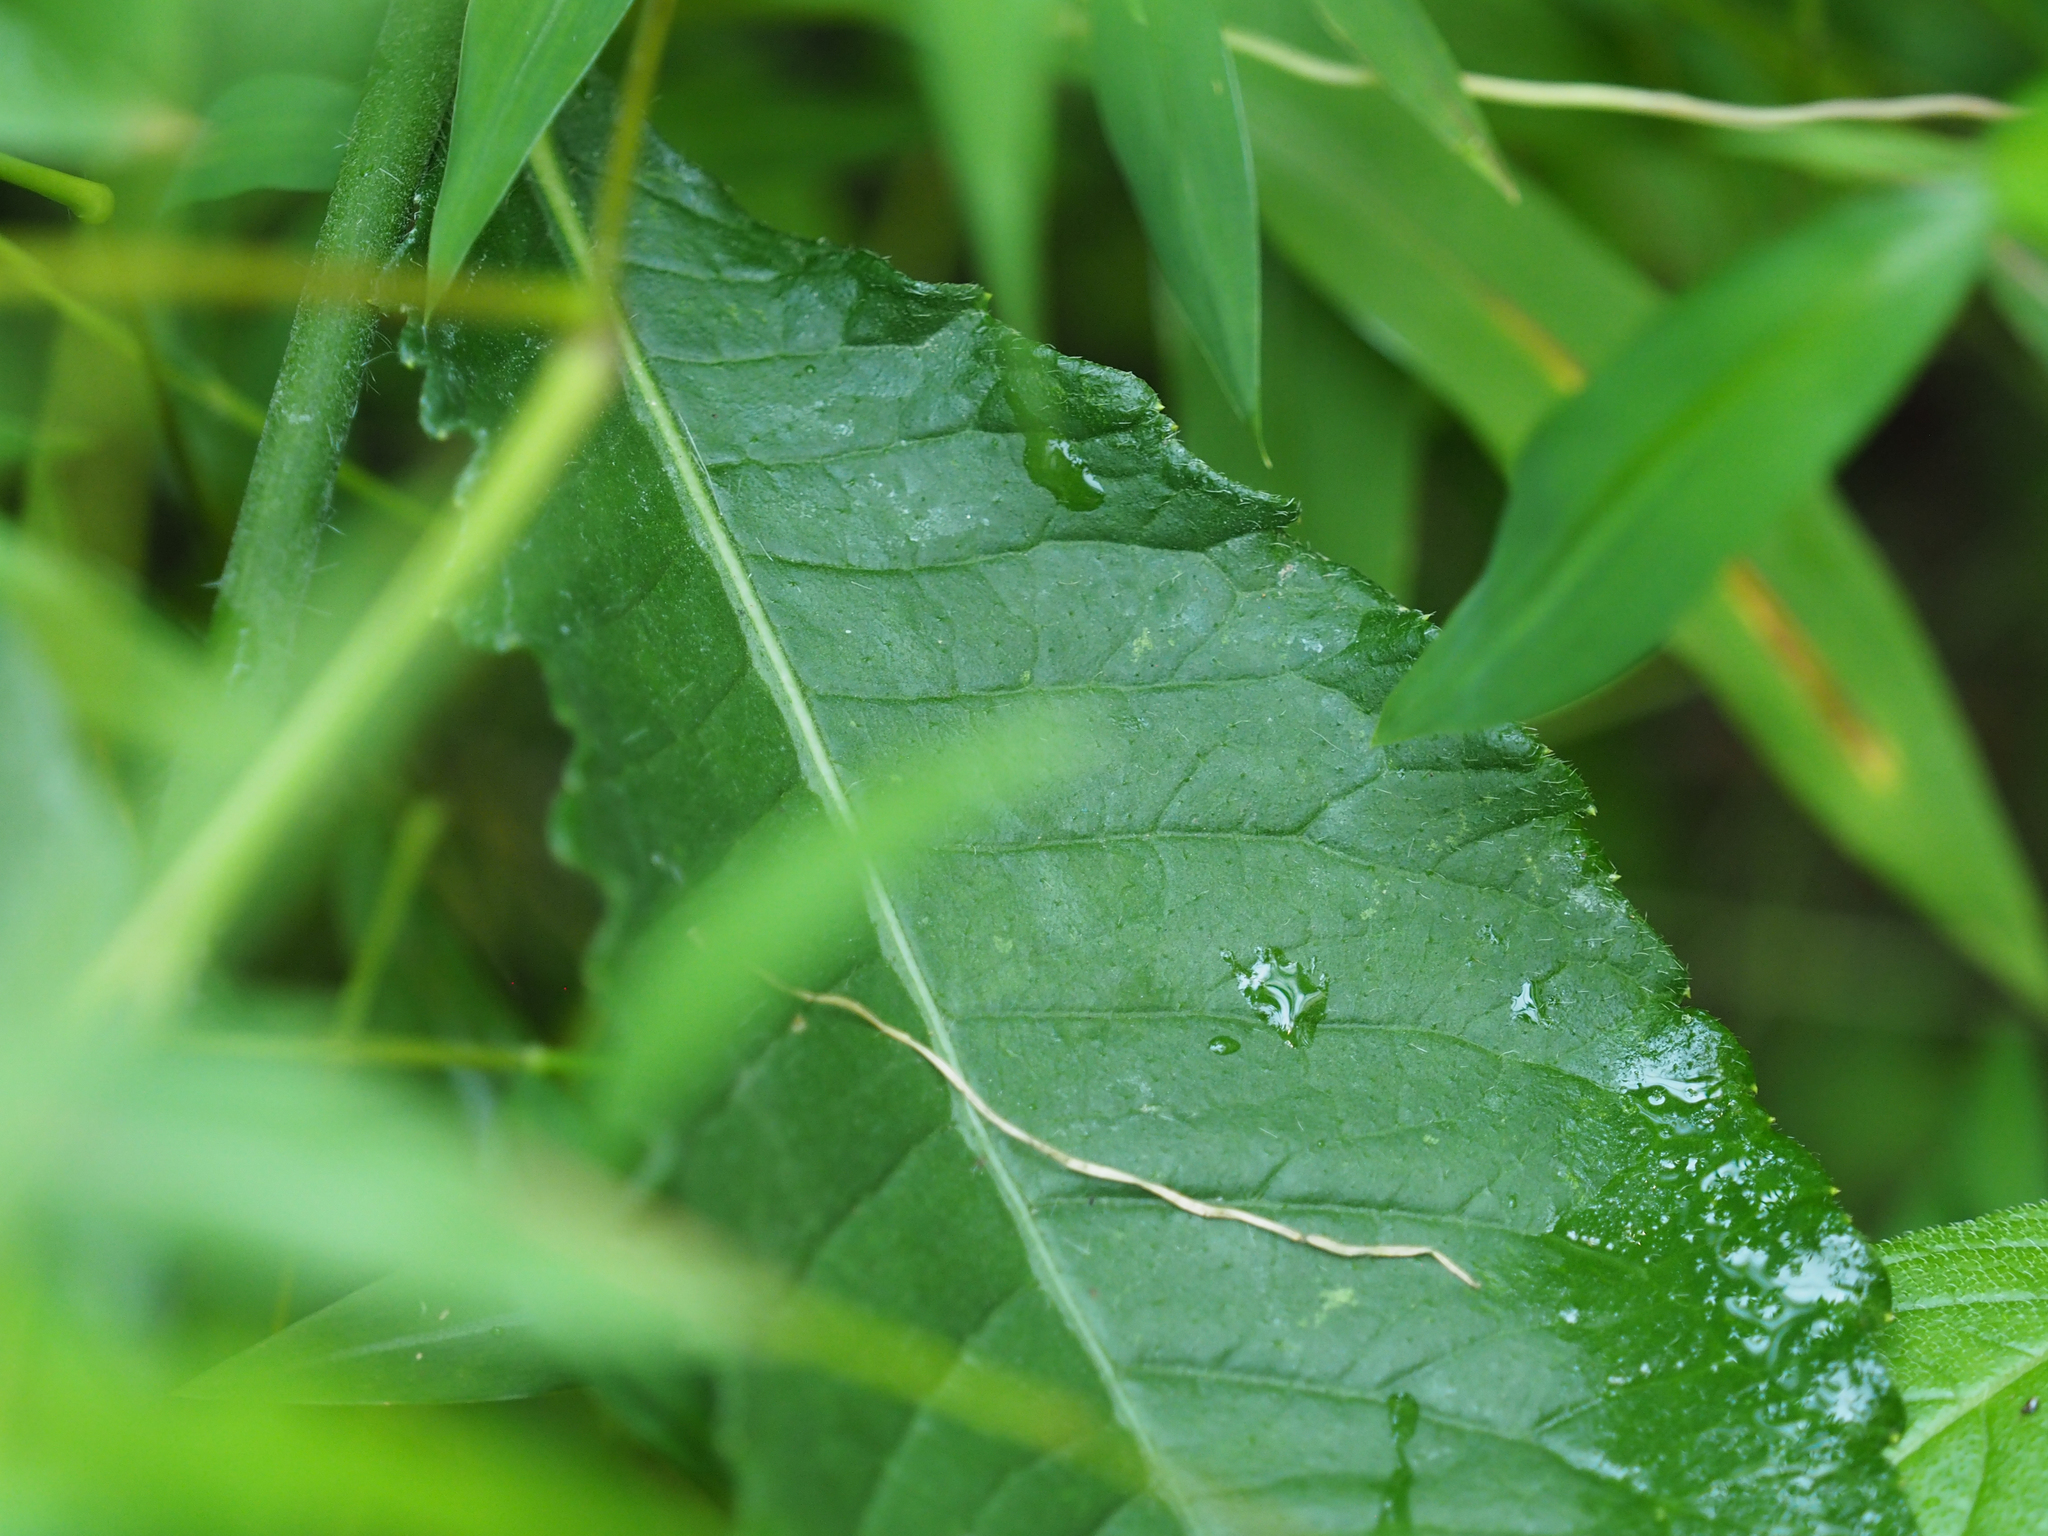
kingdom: Plantae
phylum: Tracheophyta
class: Magnoliopsida
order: Asterales
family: Asteraceae
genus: Elephantopus
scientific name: Elephantopus carolinianus
